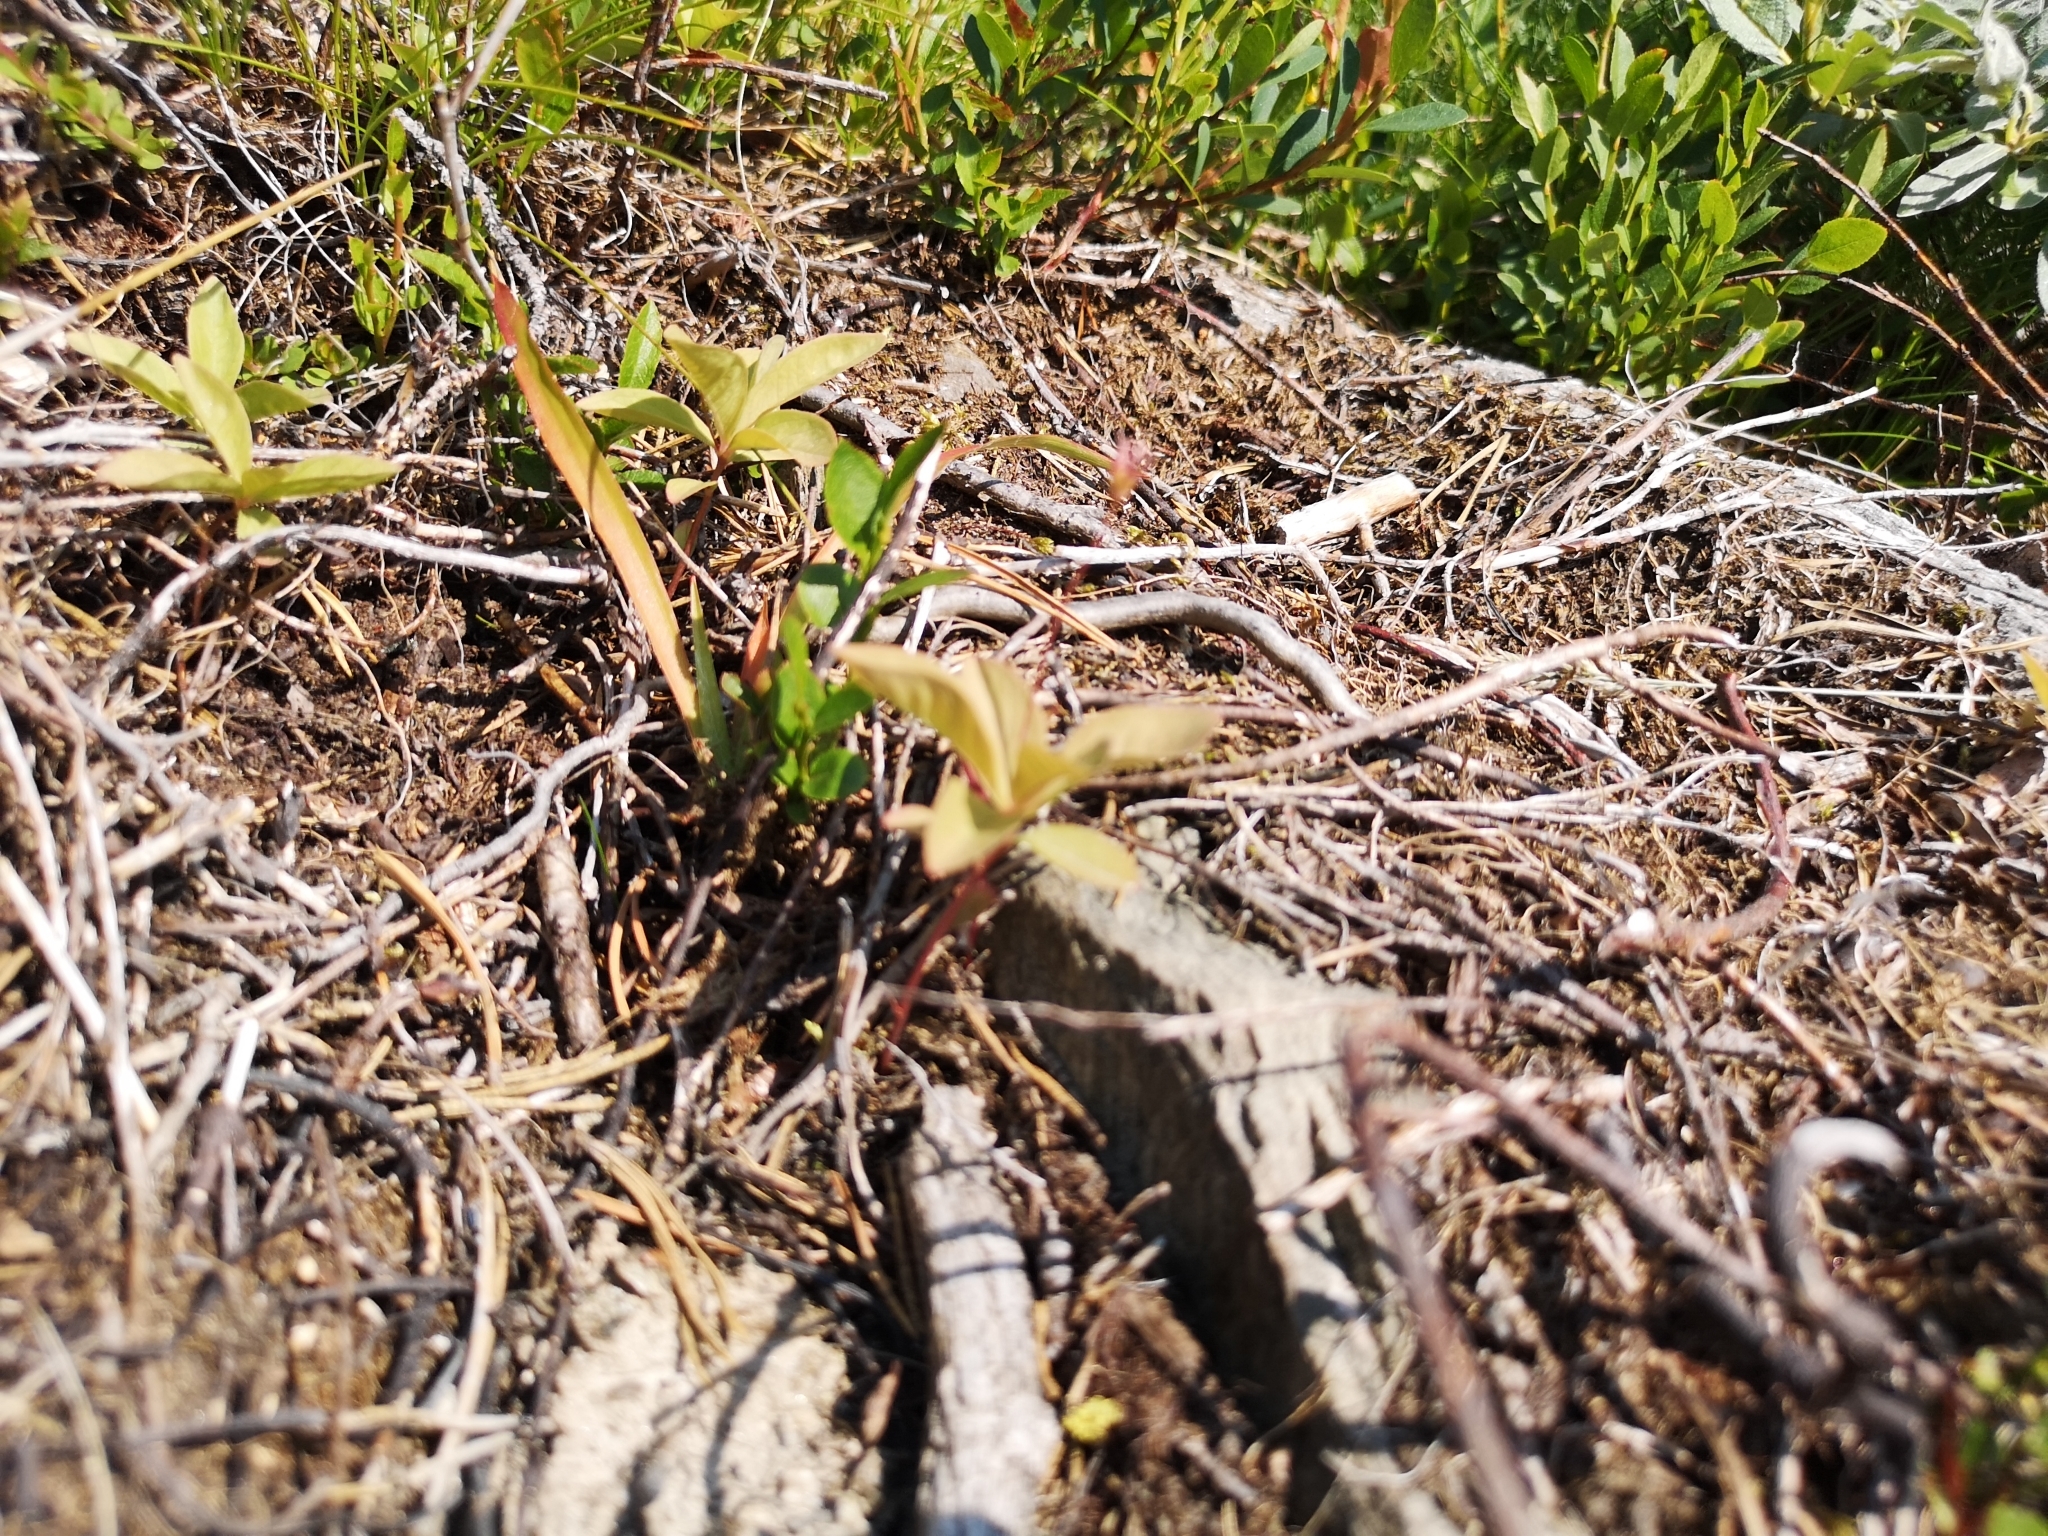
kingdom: Plantae
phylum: Tracheophyta
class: Magnoliopsida
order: Ericales
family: Primulaceae
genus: Lysimachia
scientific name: Lysimachia europaea
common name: Arctic starflower
